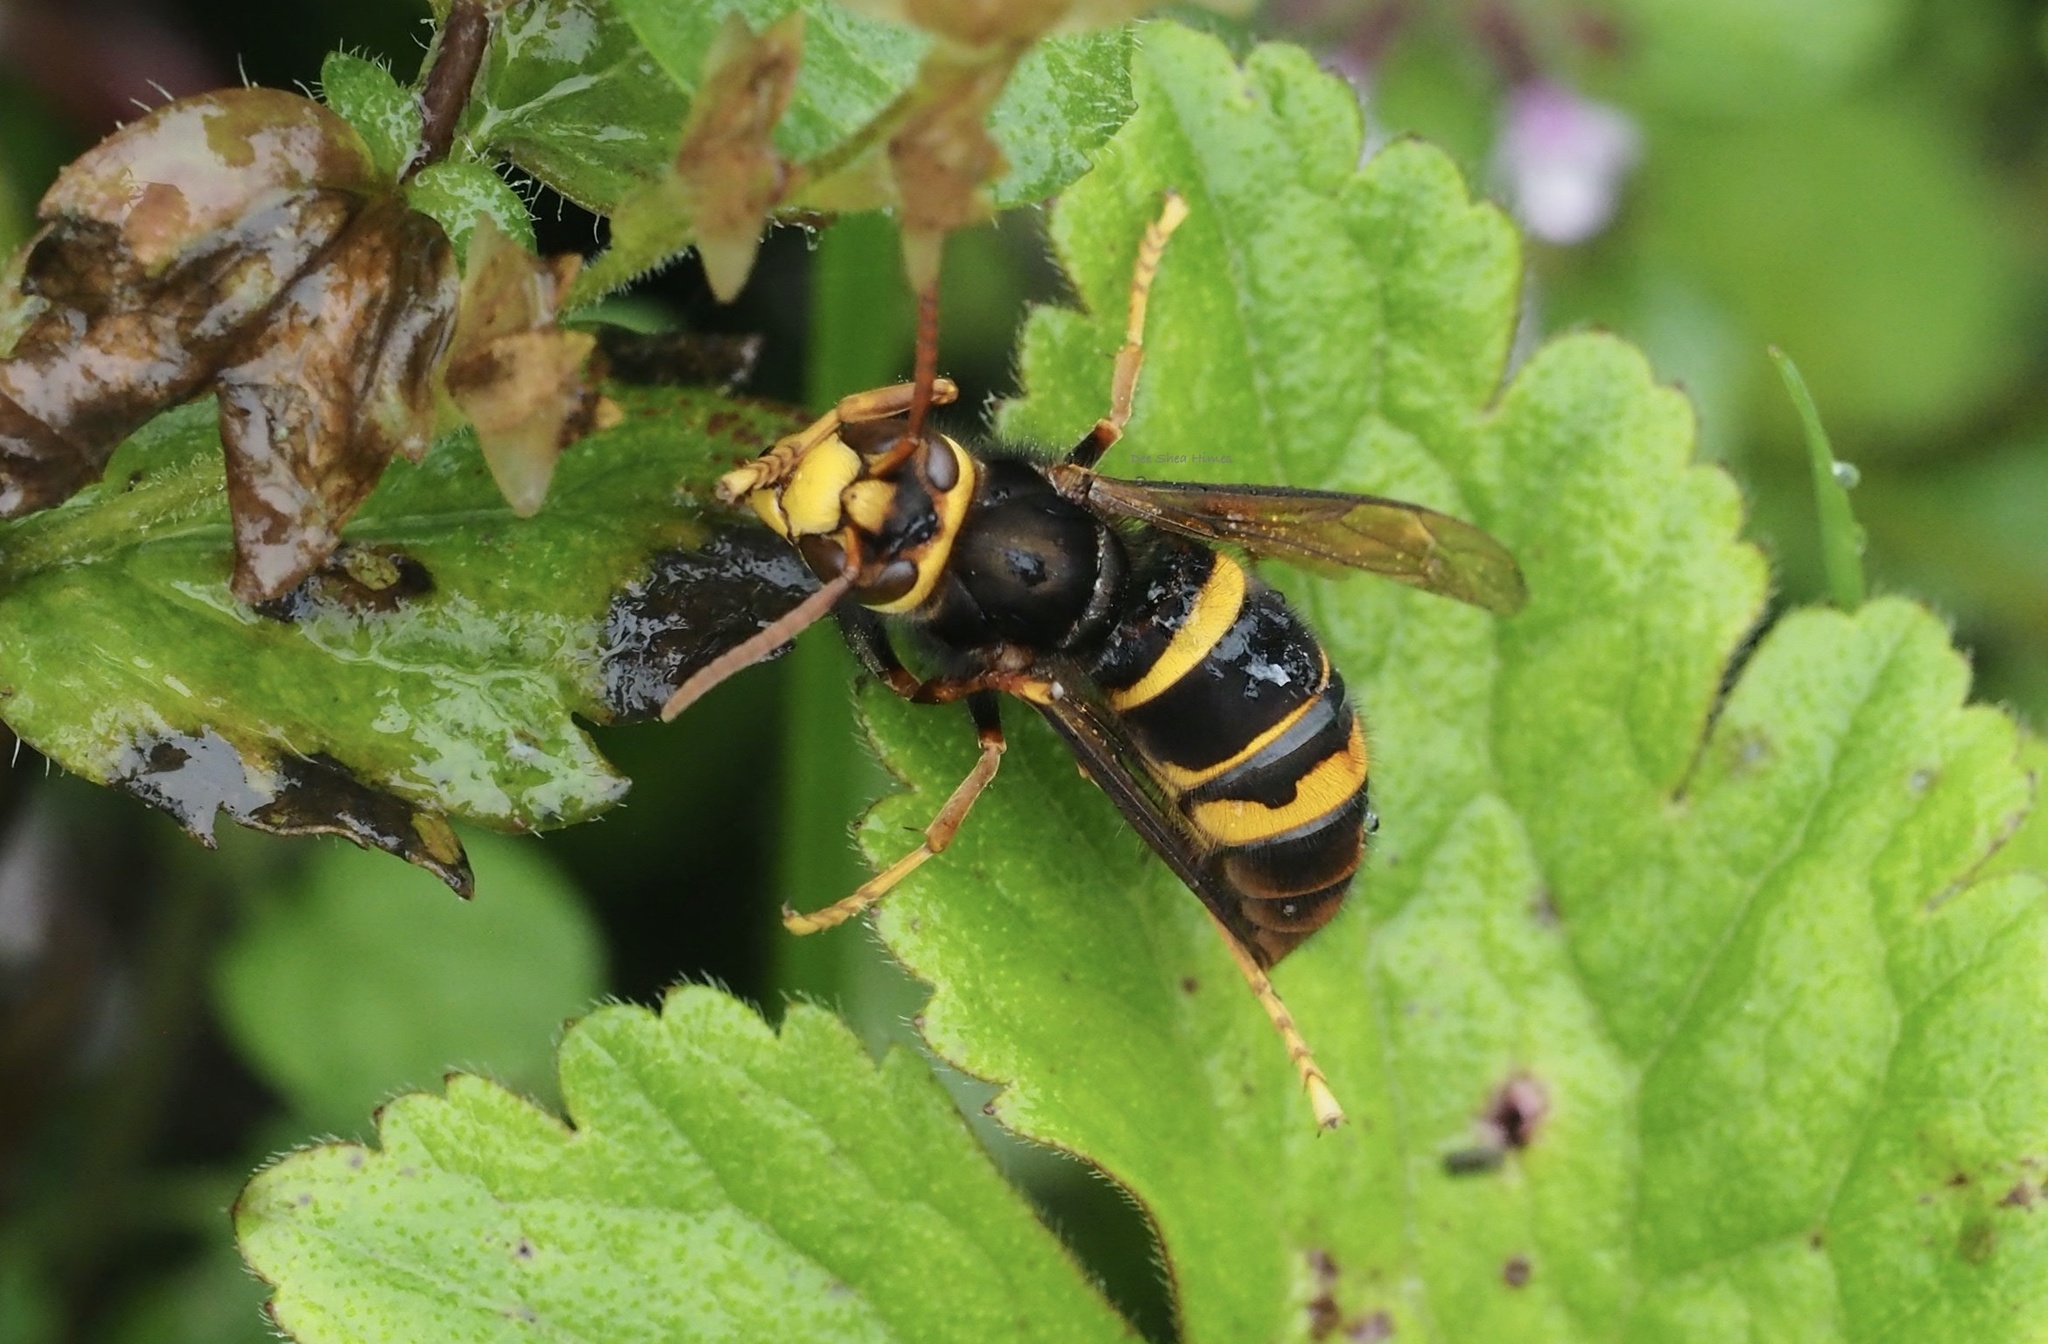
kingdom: Animalia
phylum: Arthropoda
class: Insecta
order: Hymenoptera
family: Vespidae
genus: Vespa
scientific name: Vespa vivax
